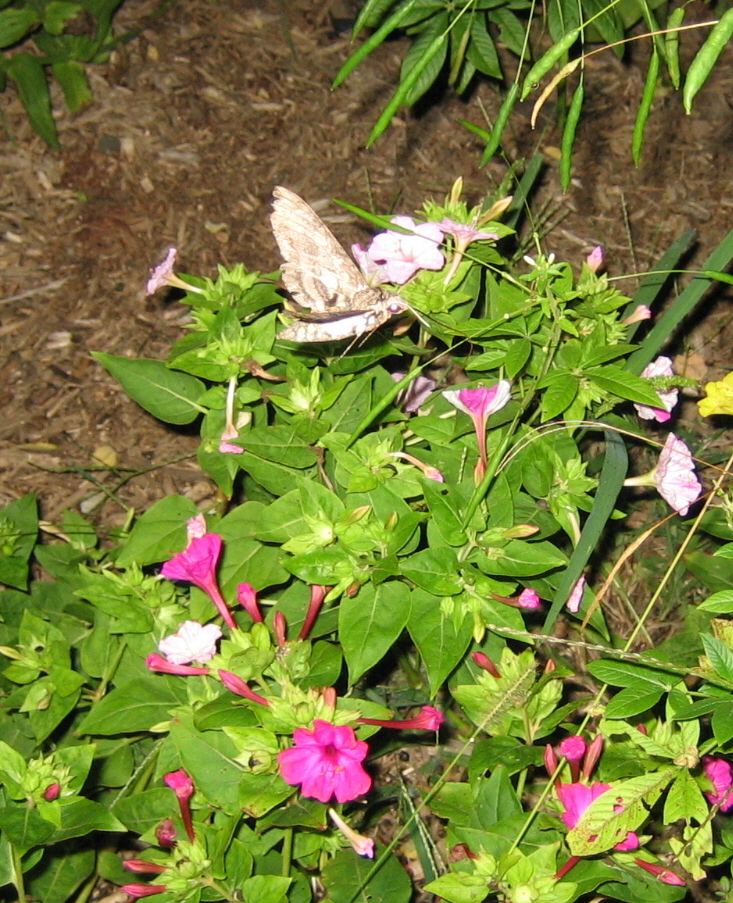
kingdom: Animalia
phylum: Arthropoda
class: Insecta
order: Lepidoptera
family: Sphingidae
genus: Manduca
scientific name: Manduca sexta
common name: Carolina sphinx
